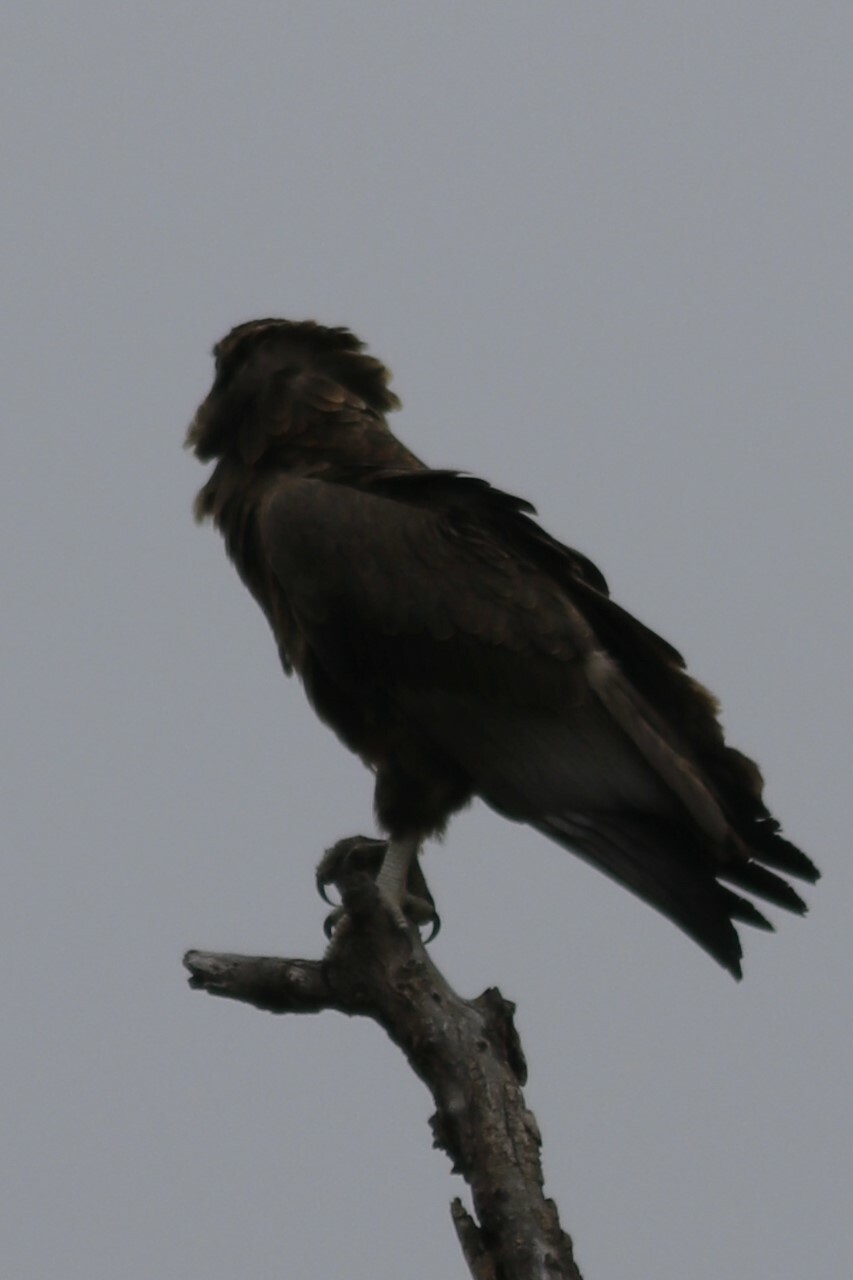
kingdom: Animalia
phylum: Chordata
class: Aves
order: Accipitriformes
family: Accipitridae
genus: Terathopius
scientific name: Terathopius ecaudatus
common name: Bateleur
